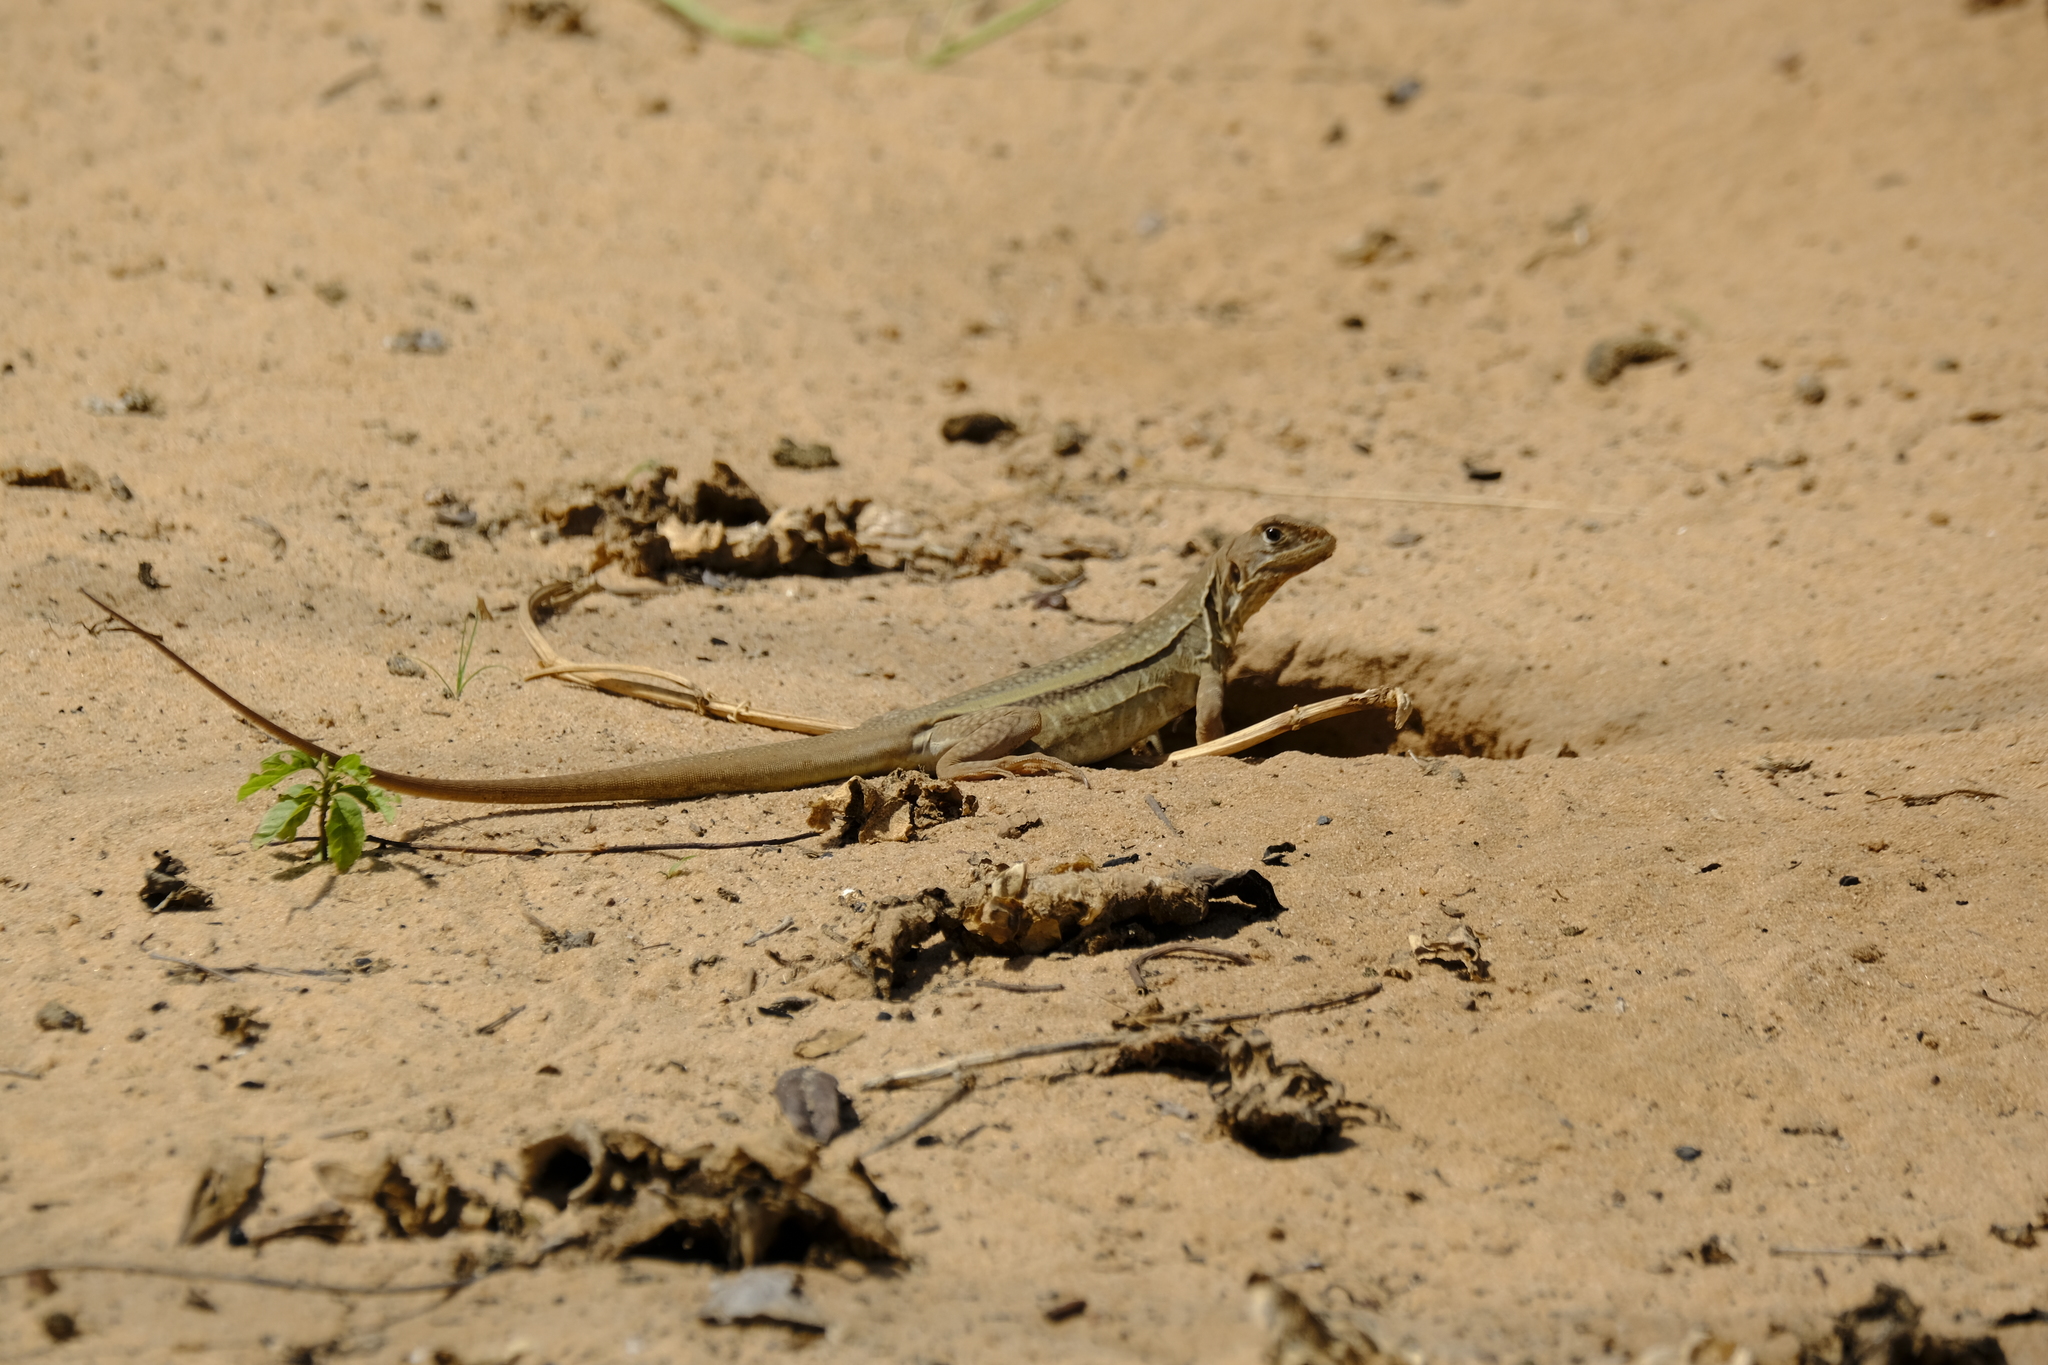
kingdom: Animalia
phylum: Chordata
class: Squamata
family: Agamidae
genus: Leiolepis
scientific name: Leiolepis guttata
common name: Spotted butterfly lizard
